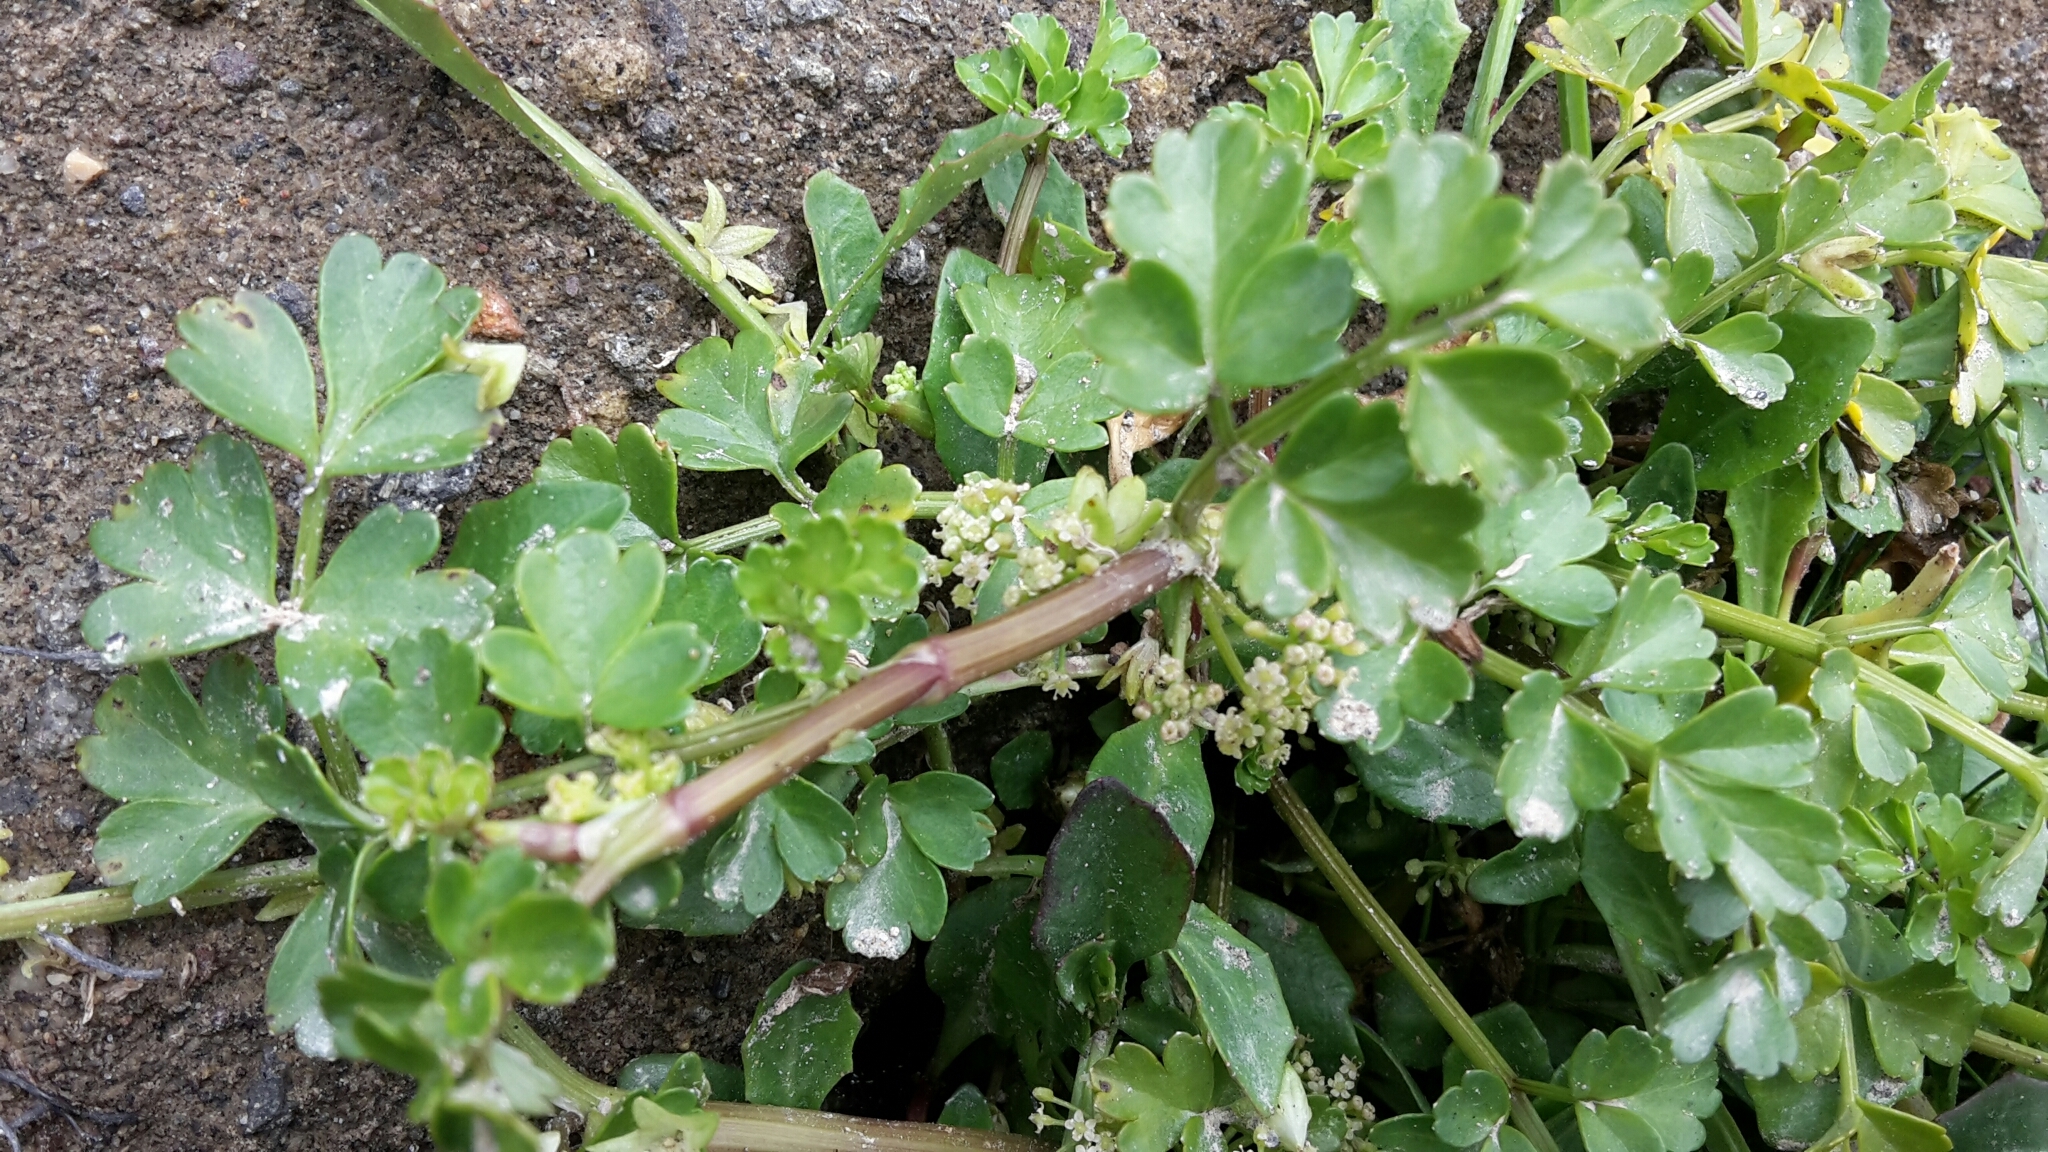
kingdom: Plantae
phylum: Tracheophyta
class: Magnoliopsida
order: Apiales
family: Apiaceae
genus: Apium
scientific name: Apium prostratum
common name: Prostrate marshwort
